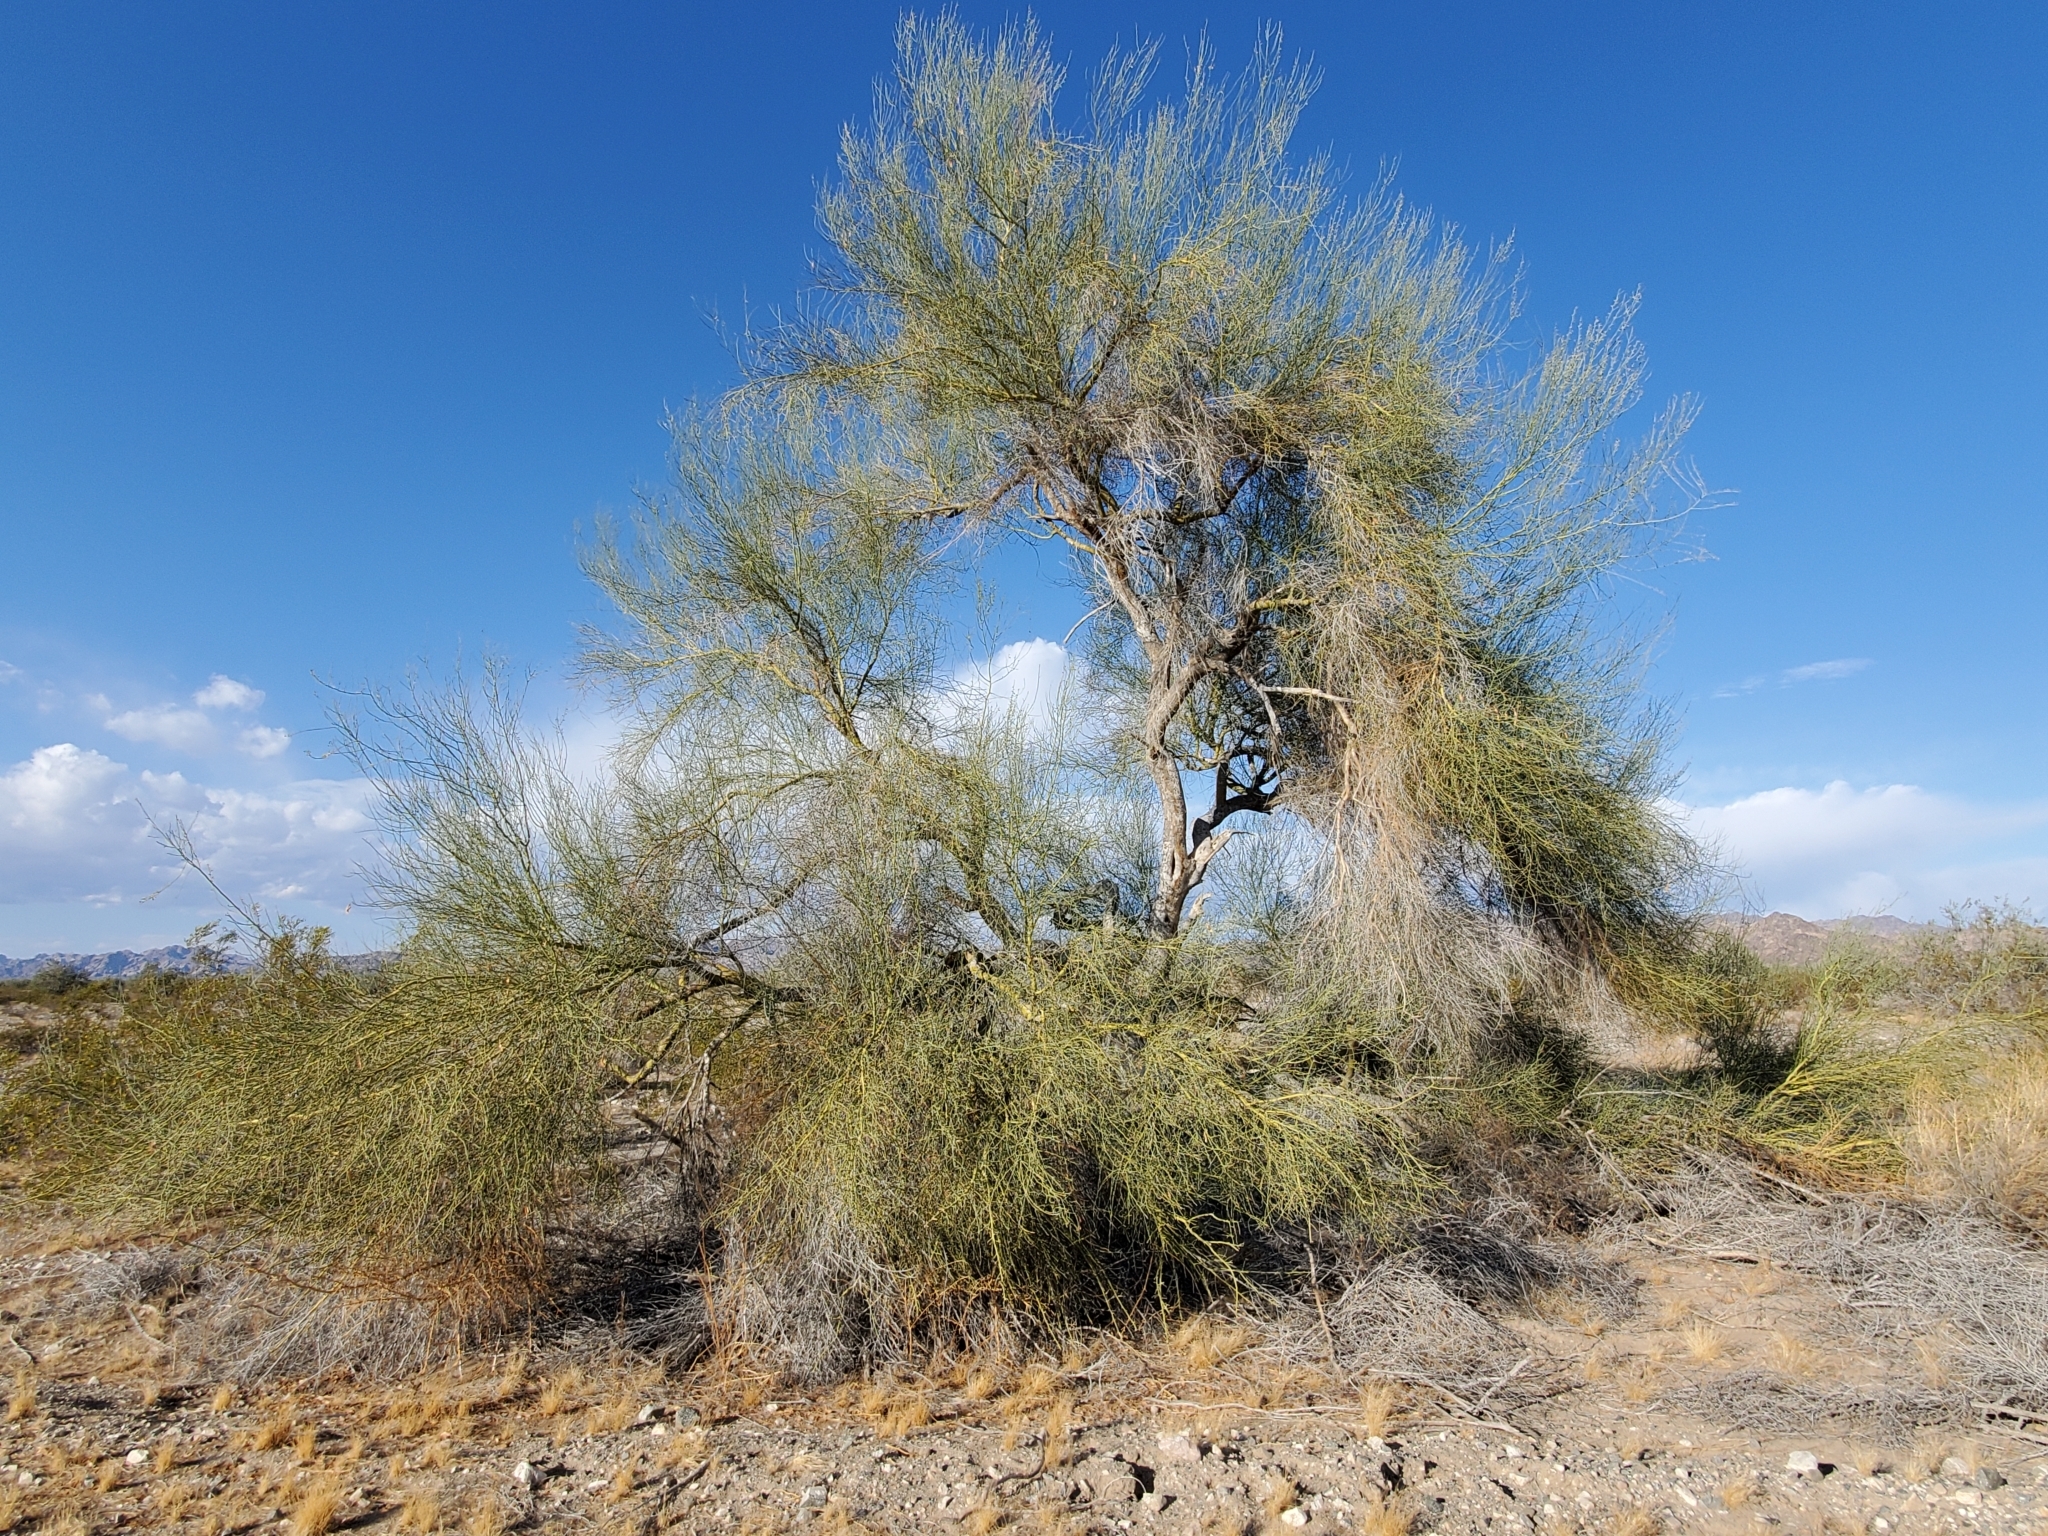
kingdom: Plantae
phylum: Tracheophyta
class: Magnoliopsida
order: Fabales
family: Fabaceae
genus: Parkinsonia
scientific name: Parkinsonia florida
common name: Blue paloverde
